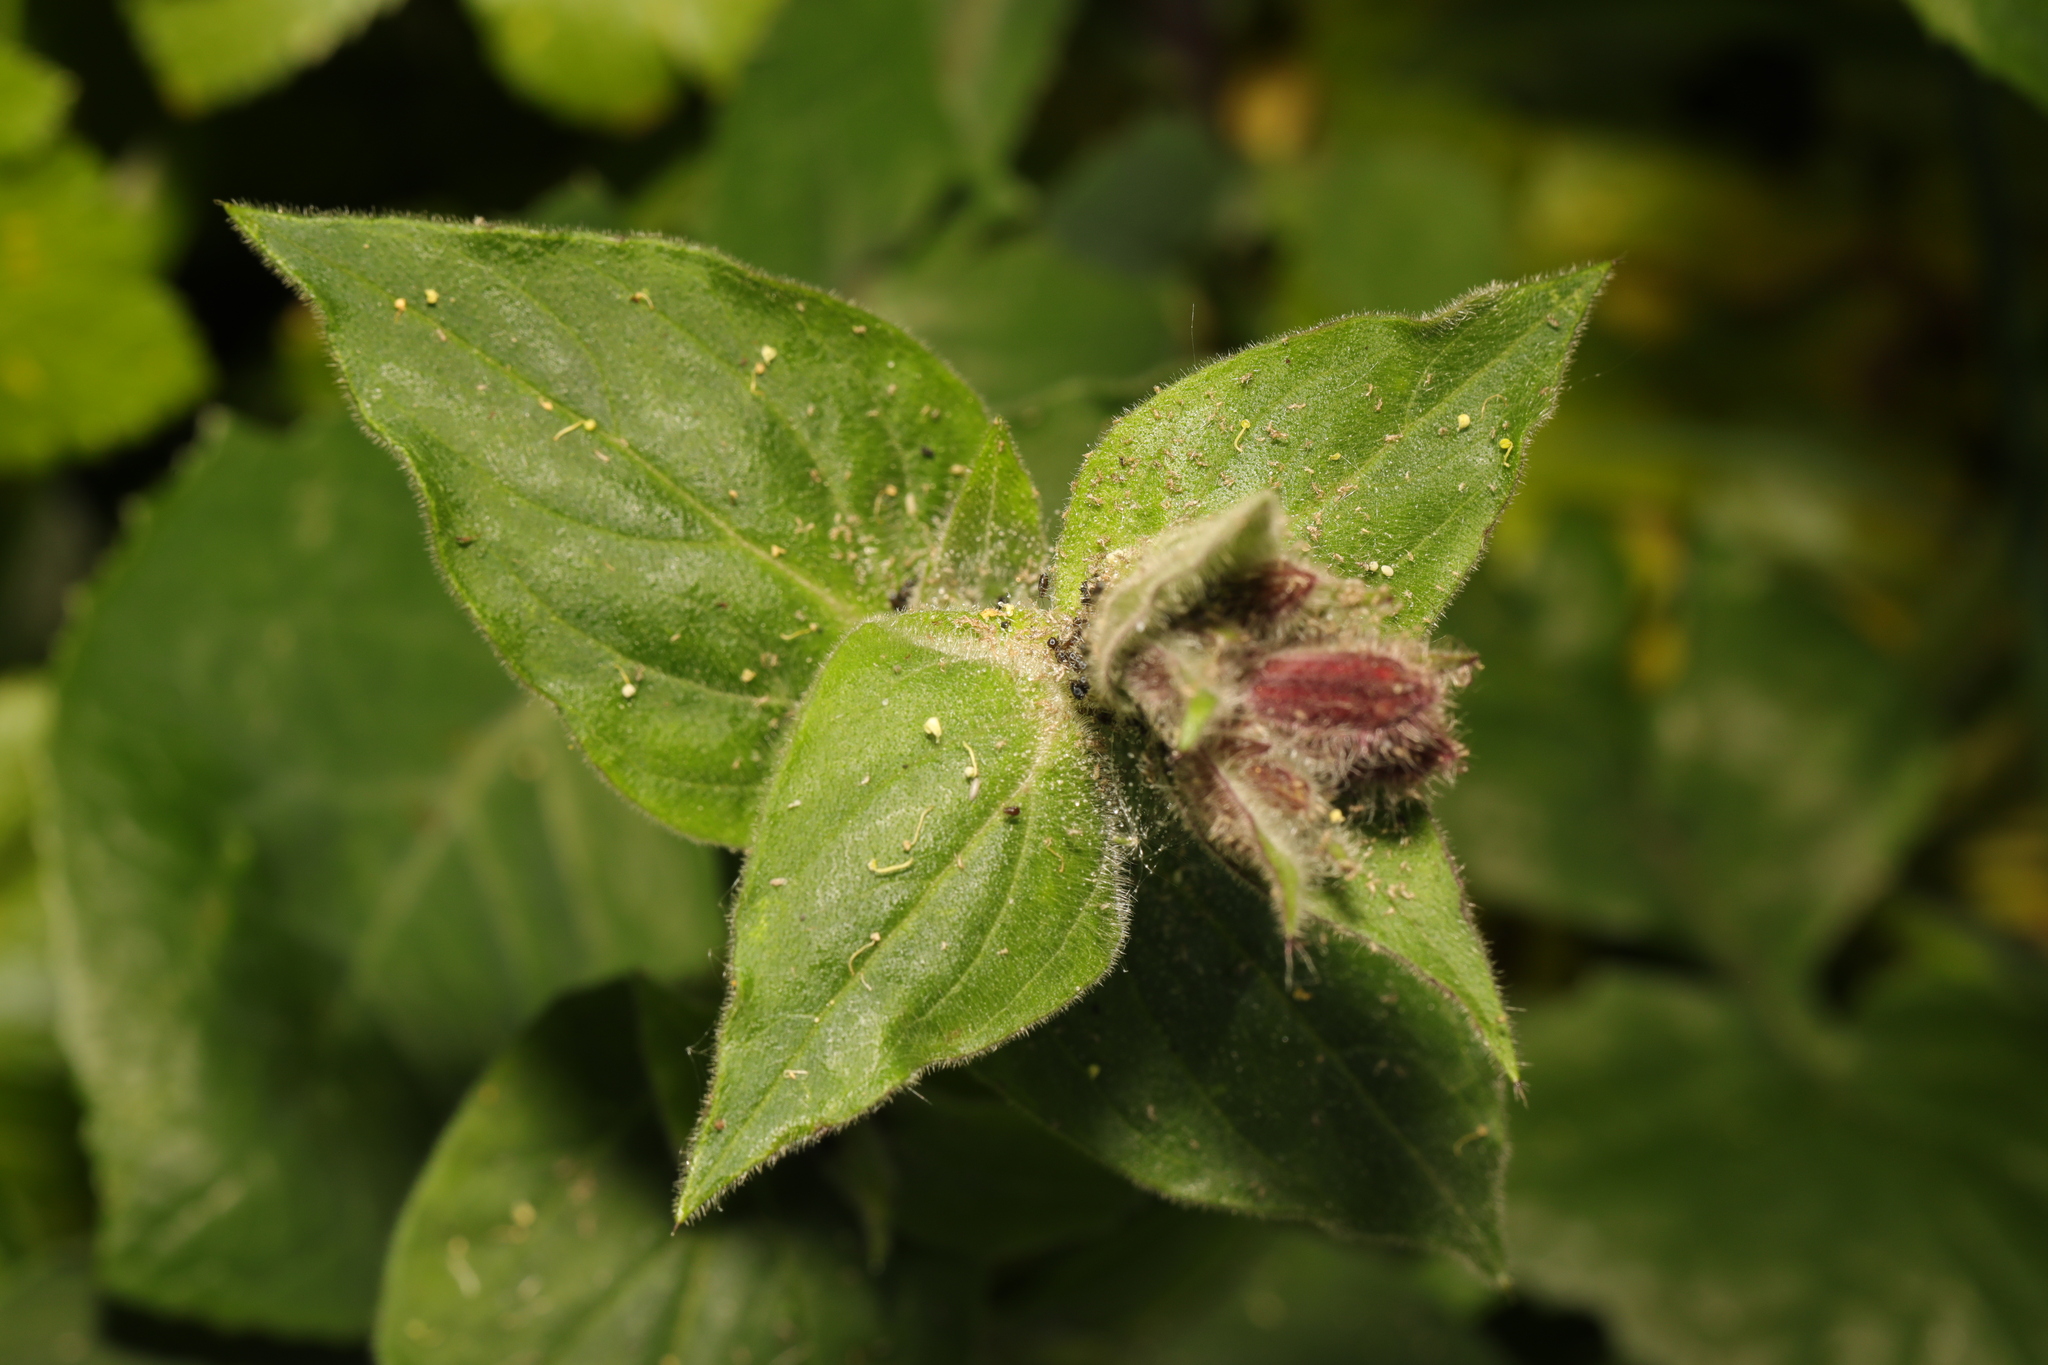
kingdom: Plantae
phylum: Tracheophyta
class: Magnoliopsida
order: Caryophyllales
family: Caryophyllaceae
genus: Silene
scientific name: Silene dioica
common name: Red campion
